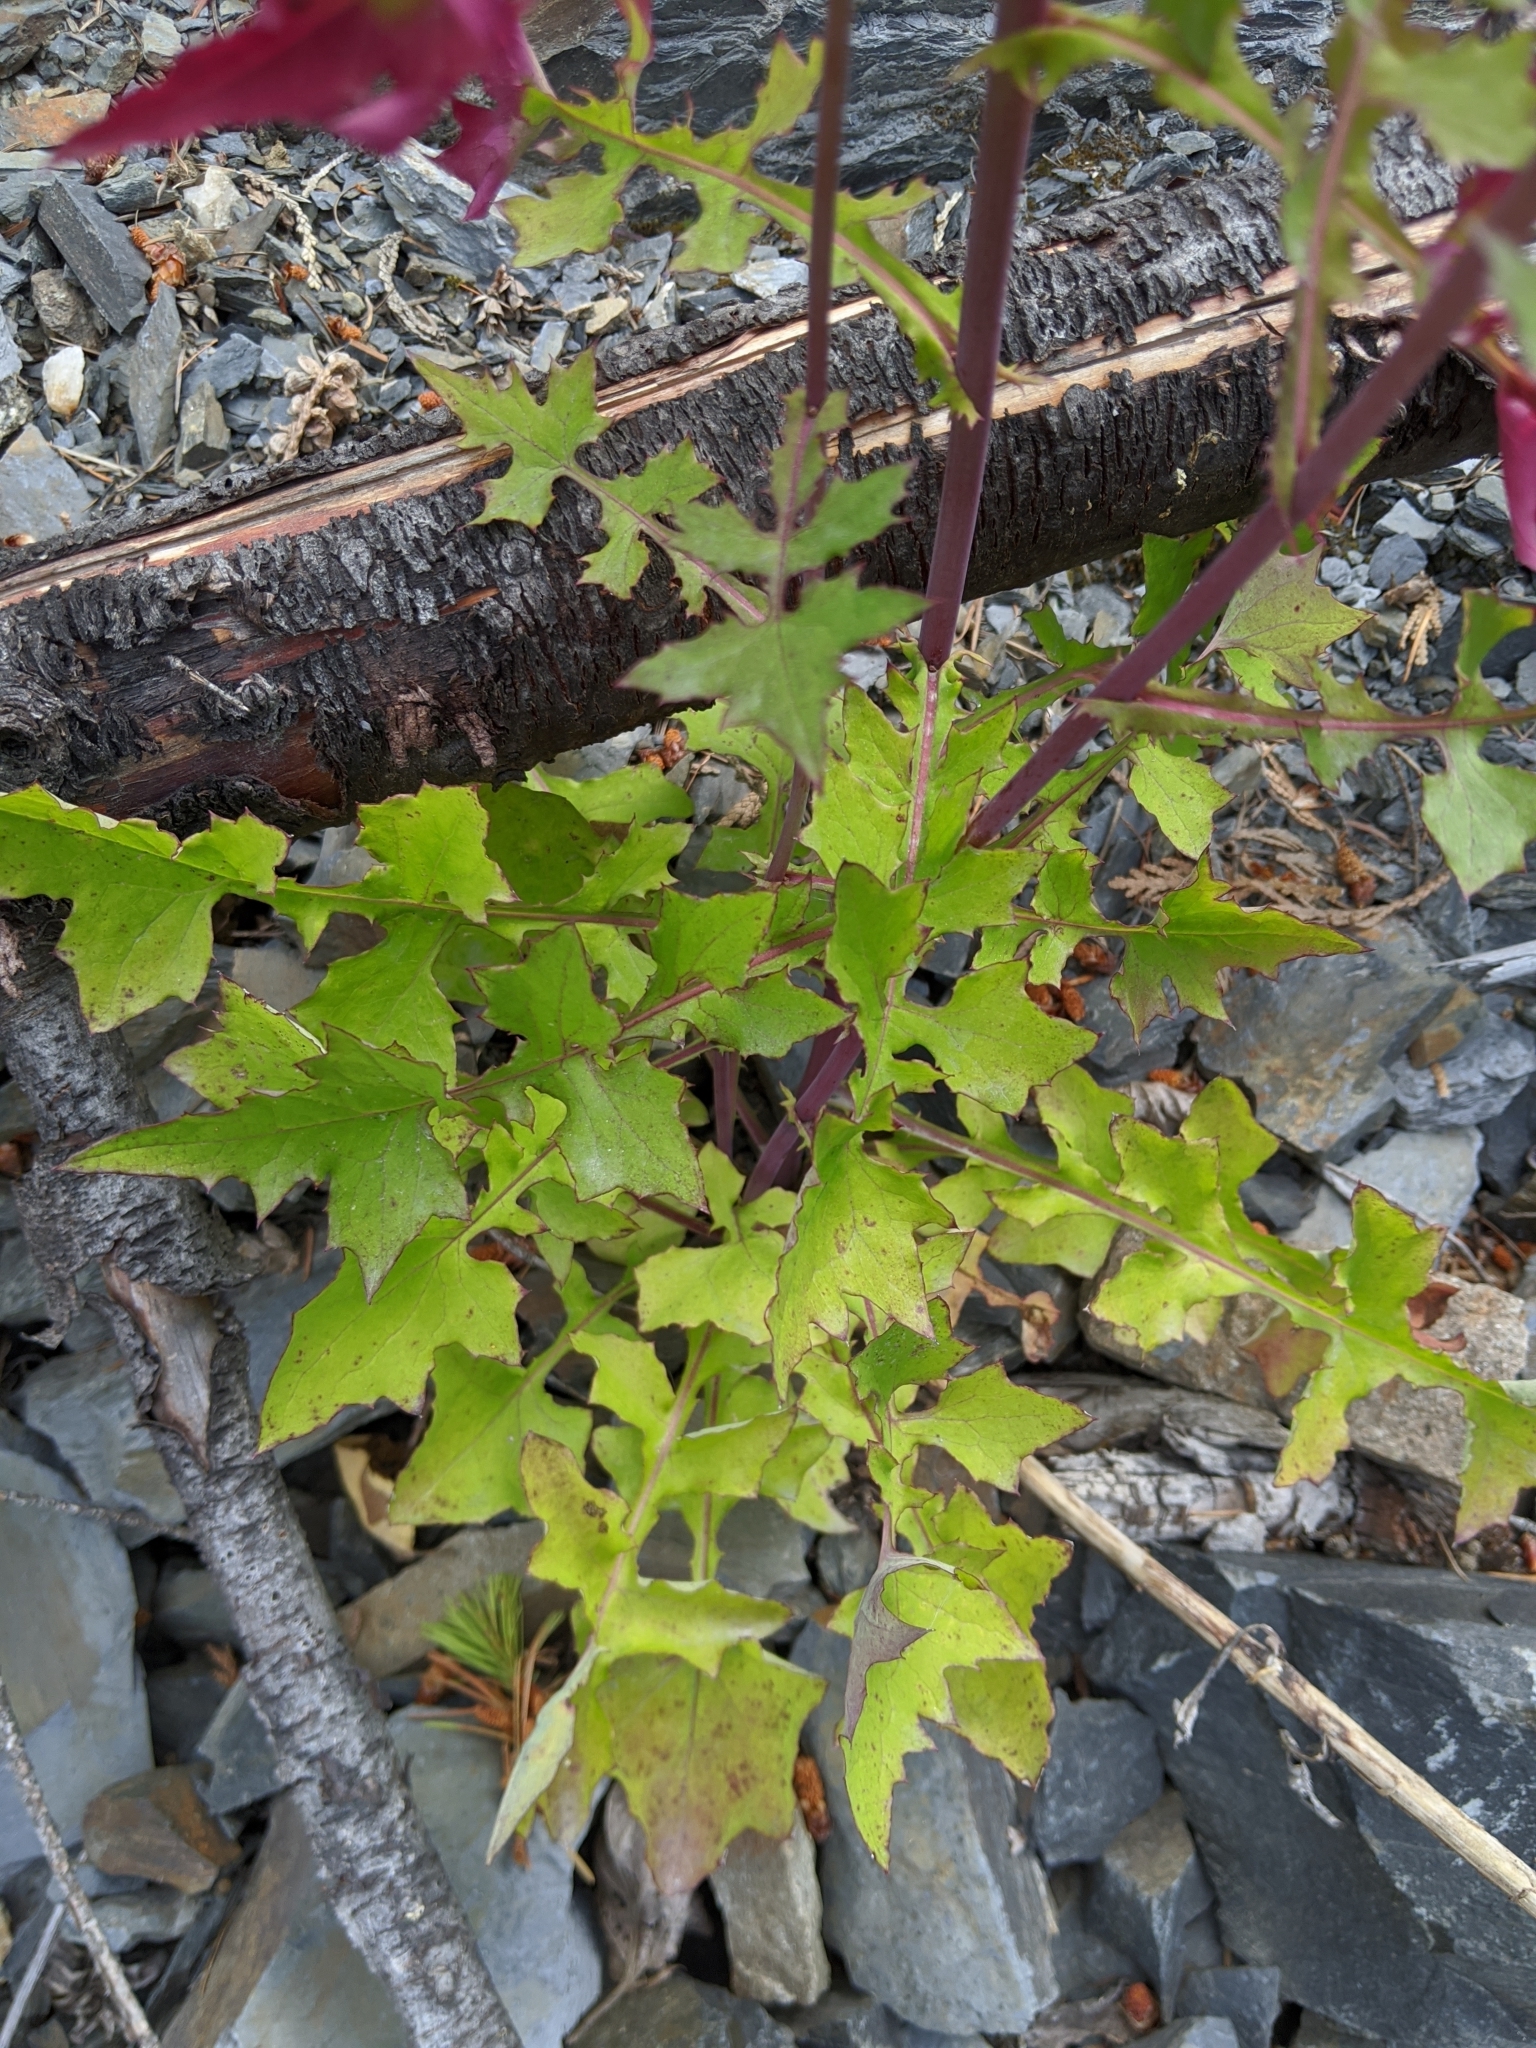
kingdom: Plantae
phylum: Tracheophyta
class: Magnoliopsida
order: Asterales
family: Asteraceae
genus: Mycelis
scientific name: Mycelis muralis
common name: Wall lettuce
